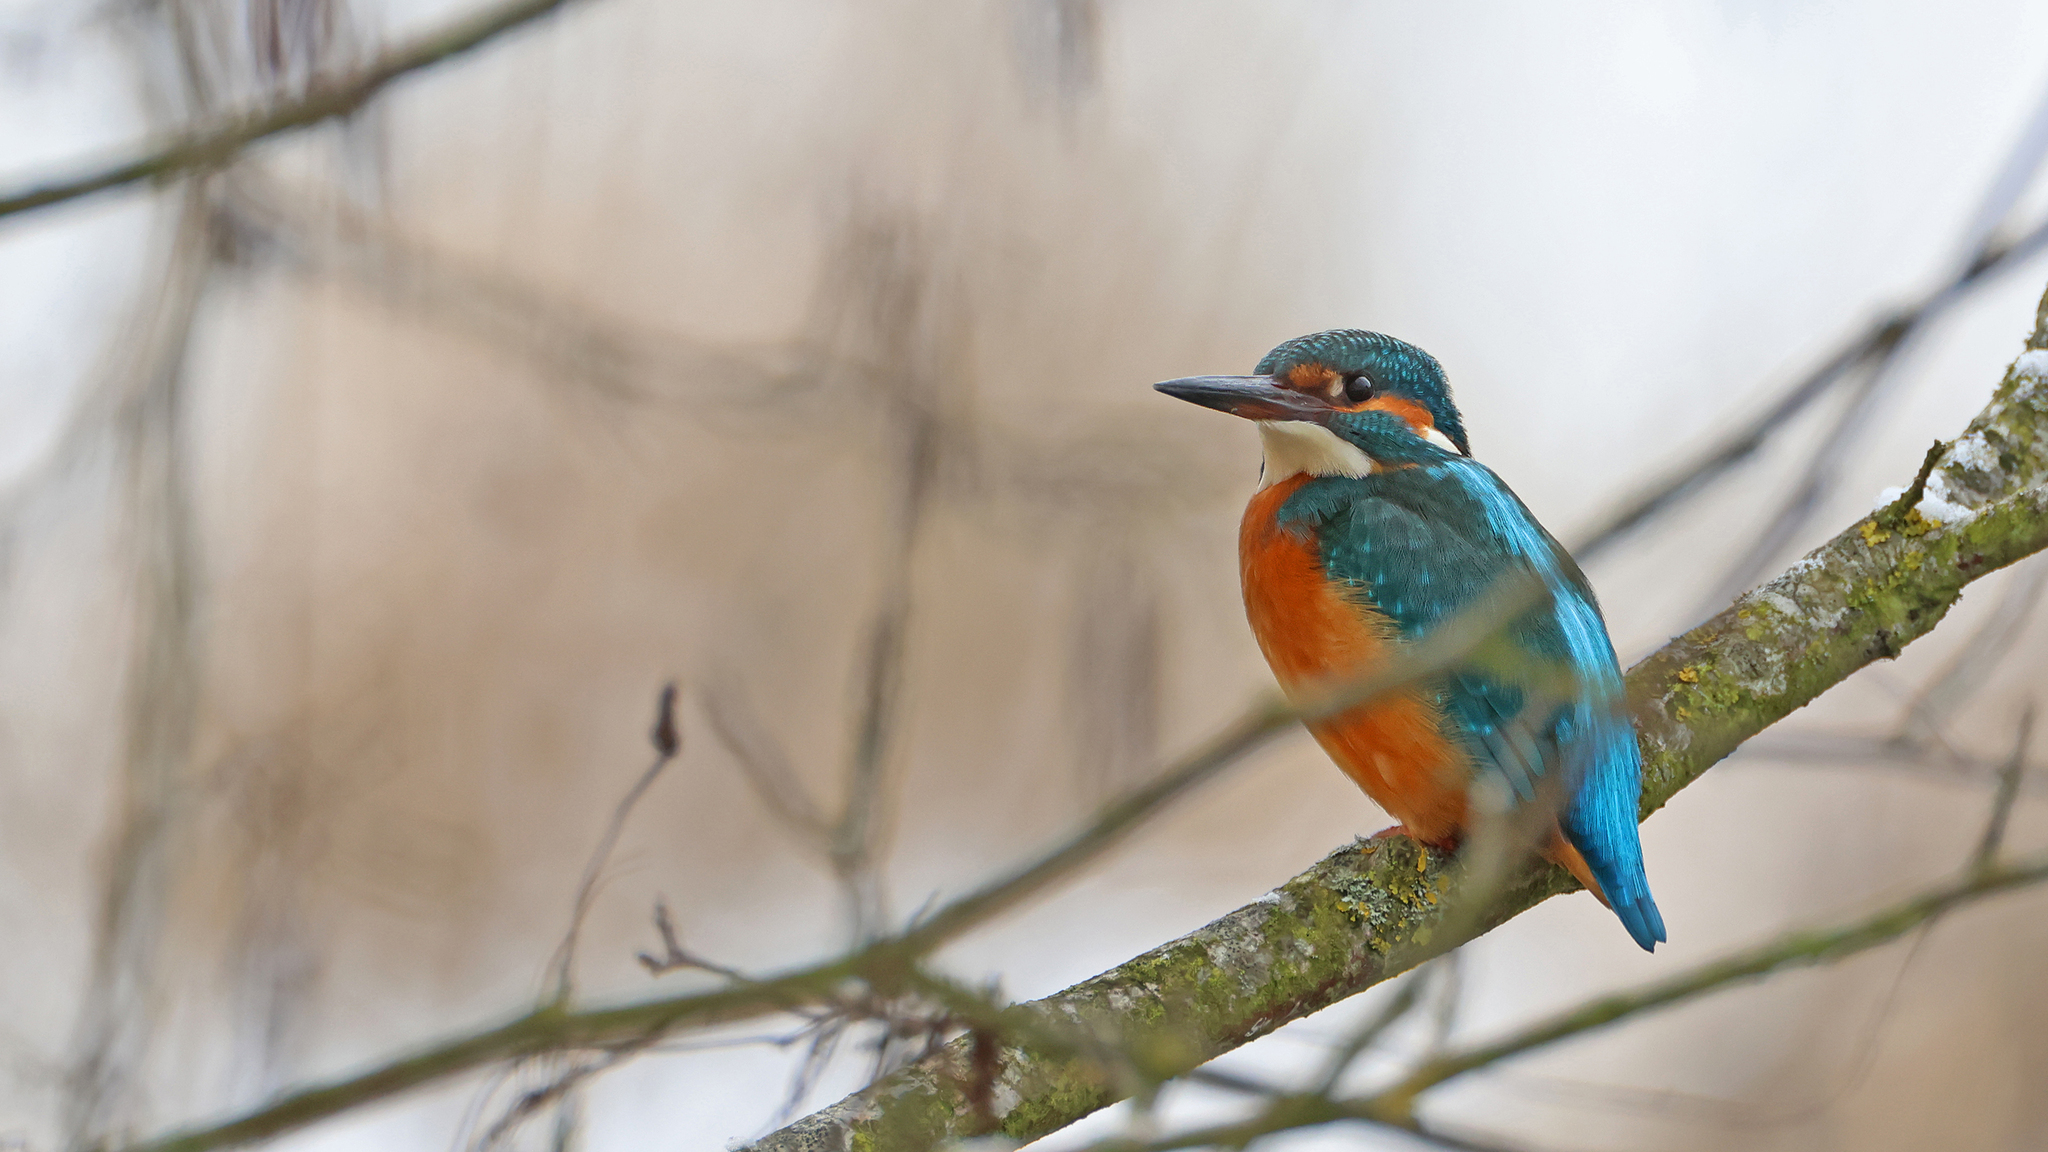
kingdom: Animalia
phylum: Chordata
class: Aves
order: Coraciiformes
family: Alcedinidae
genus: Alcedo
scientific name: Alcedo atthis
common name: Common kingfisher
